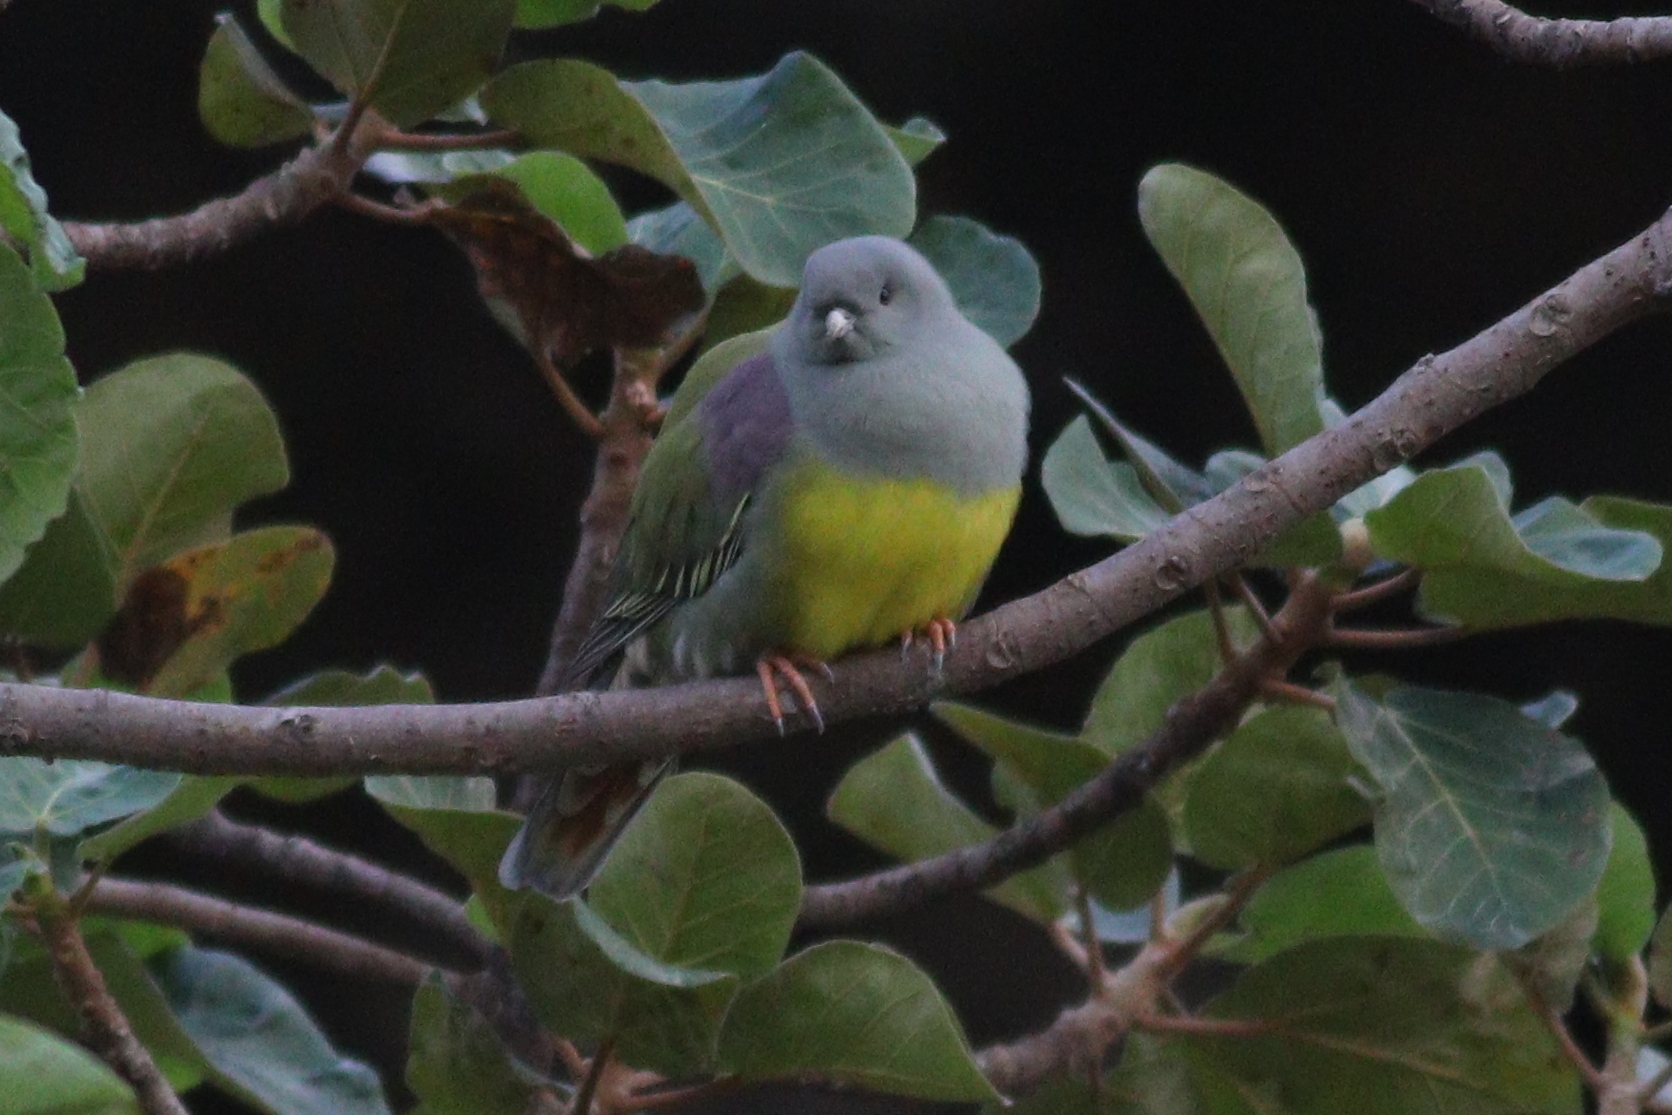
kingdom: Animalia
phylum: Chordata
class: Aves
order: Columbiformes
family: Columbidae
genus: Treron
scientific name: Treron waalia
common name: Bruce's green pigeon
